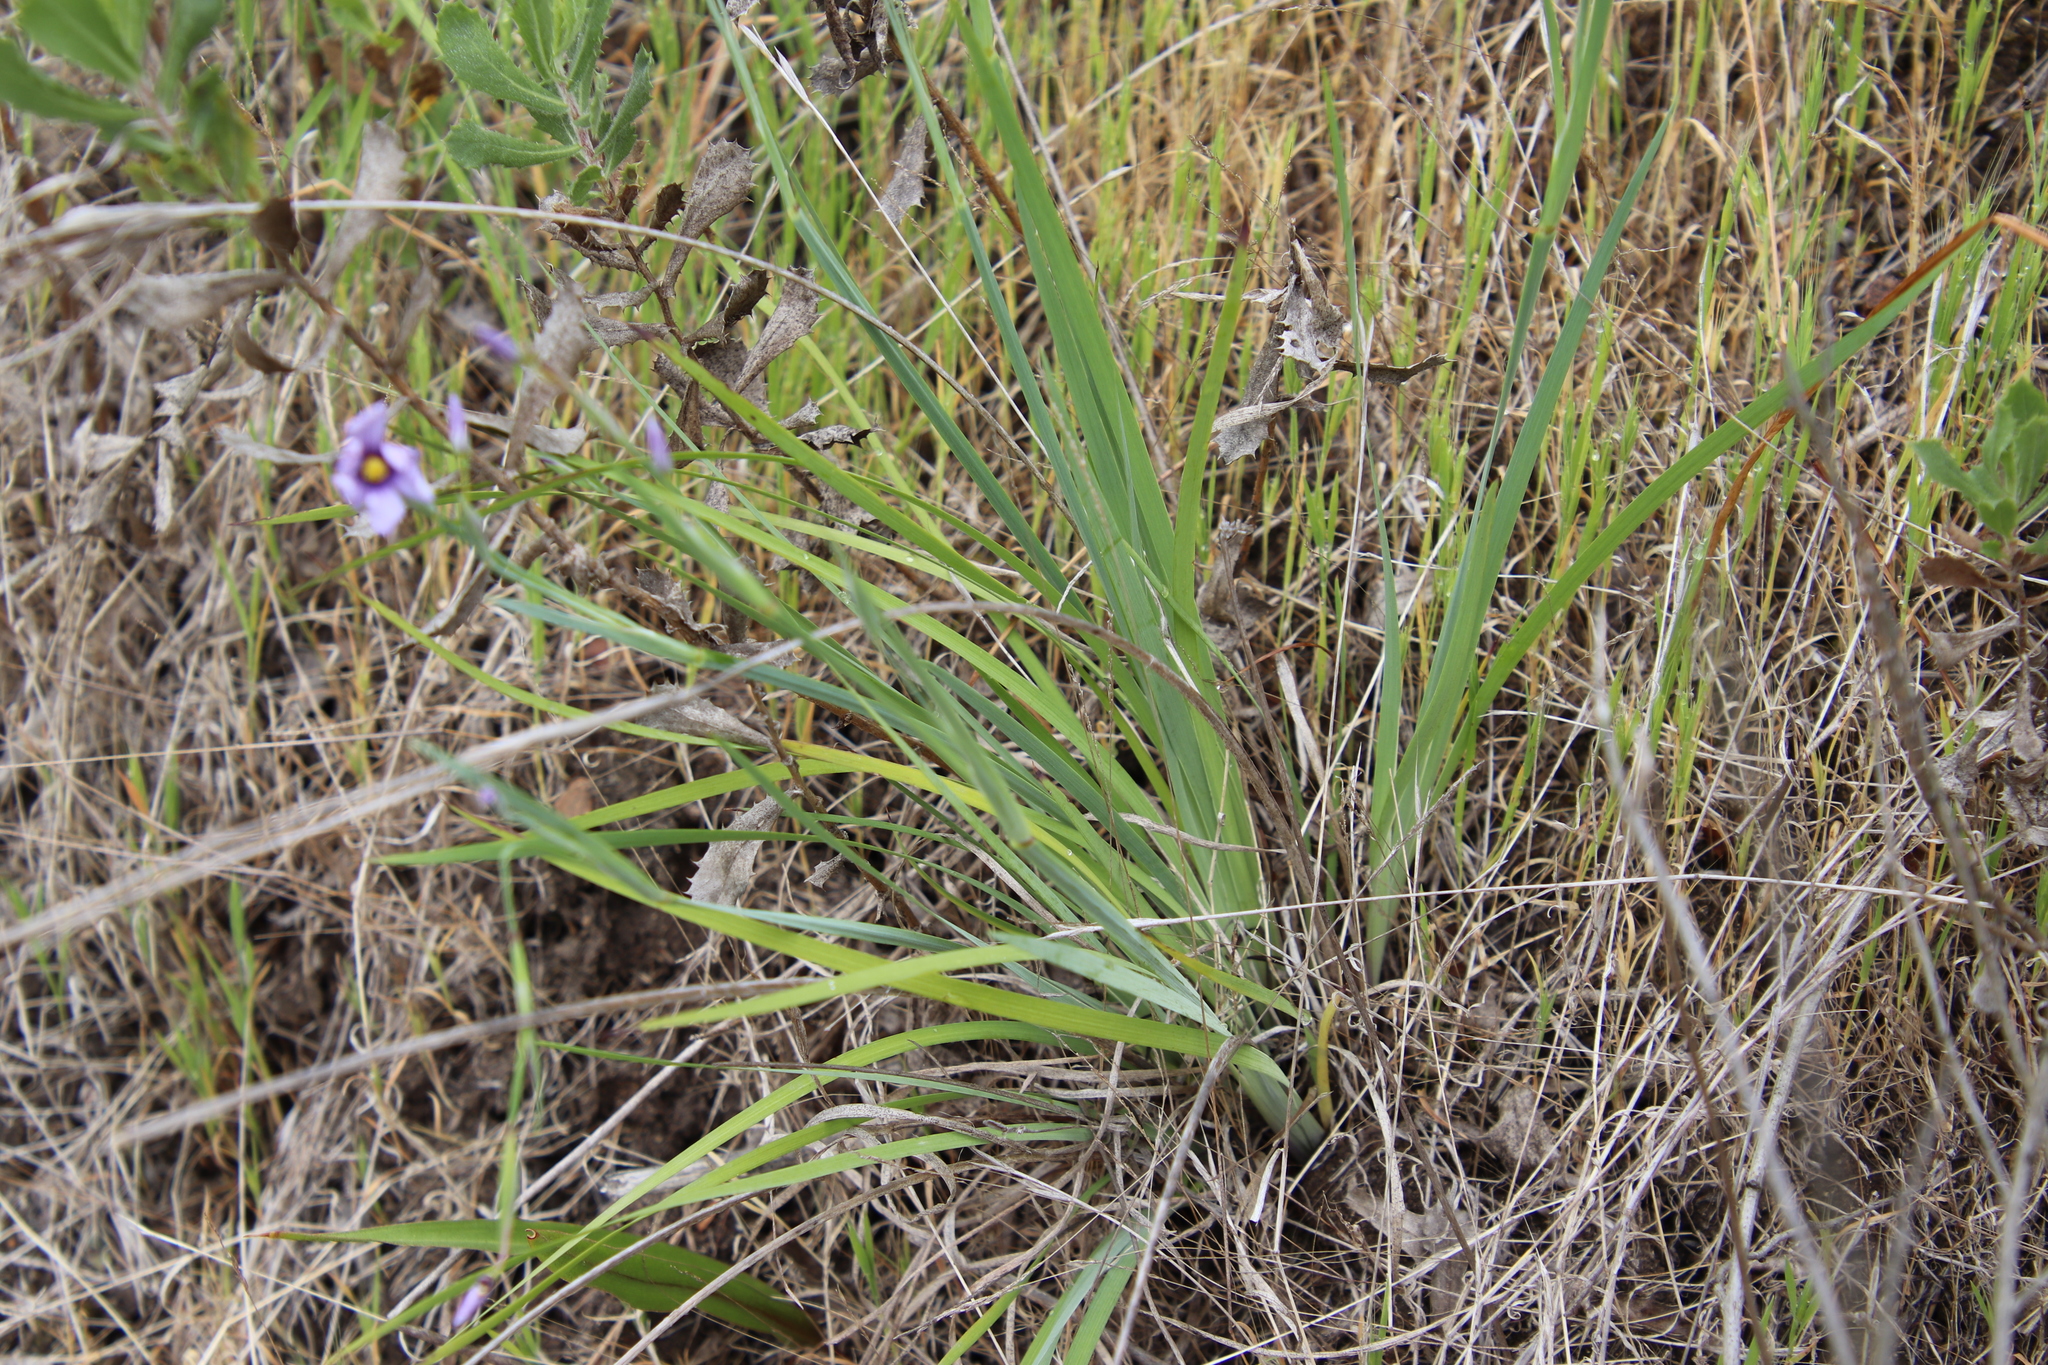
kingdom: Plantae
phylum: Tracheophyta
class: Liliopsida
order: Asparagales
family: Iridaceae
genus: Sisyrinchium
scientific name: Sisyrinchium bellum
